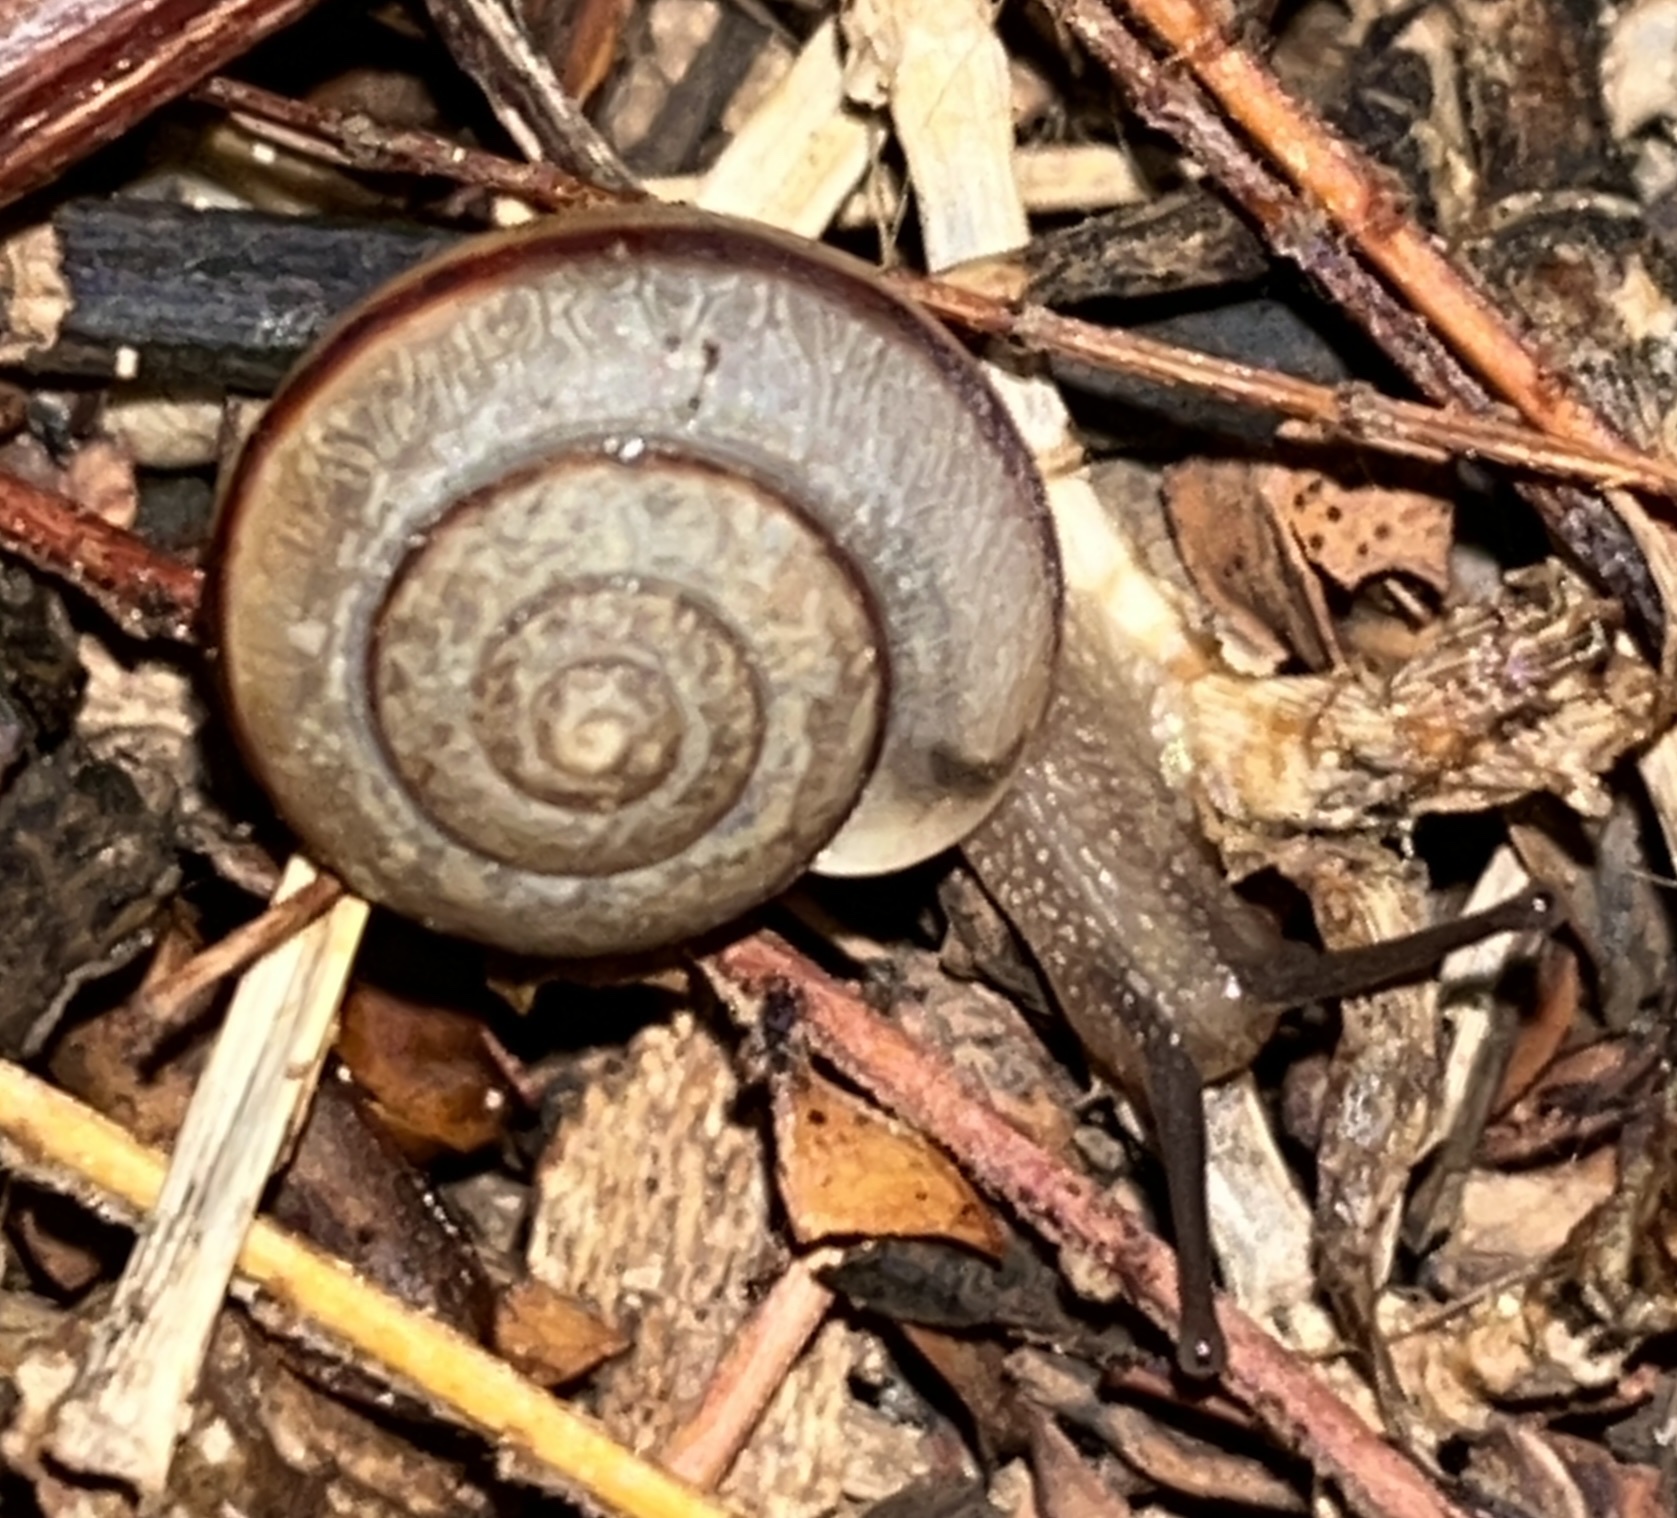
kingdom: Animalia
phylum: Mollusca
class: Gastropoda
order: Stylommatophora
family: Camaenidae
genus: Bradybaena
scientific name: Bradybaena similaris
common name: Asian trampsnail
